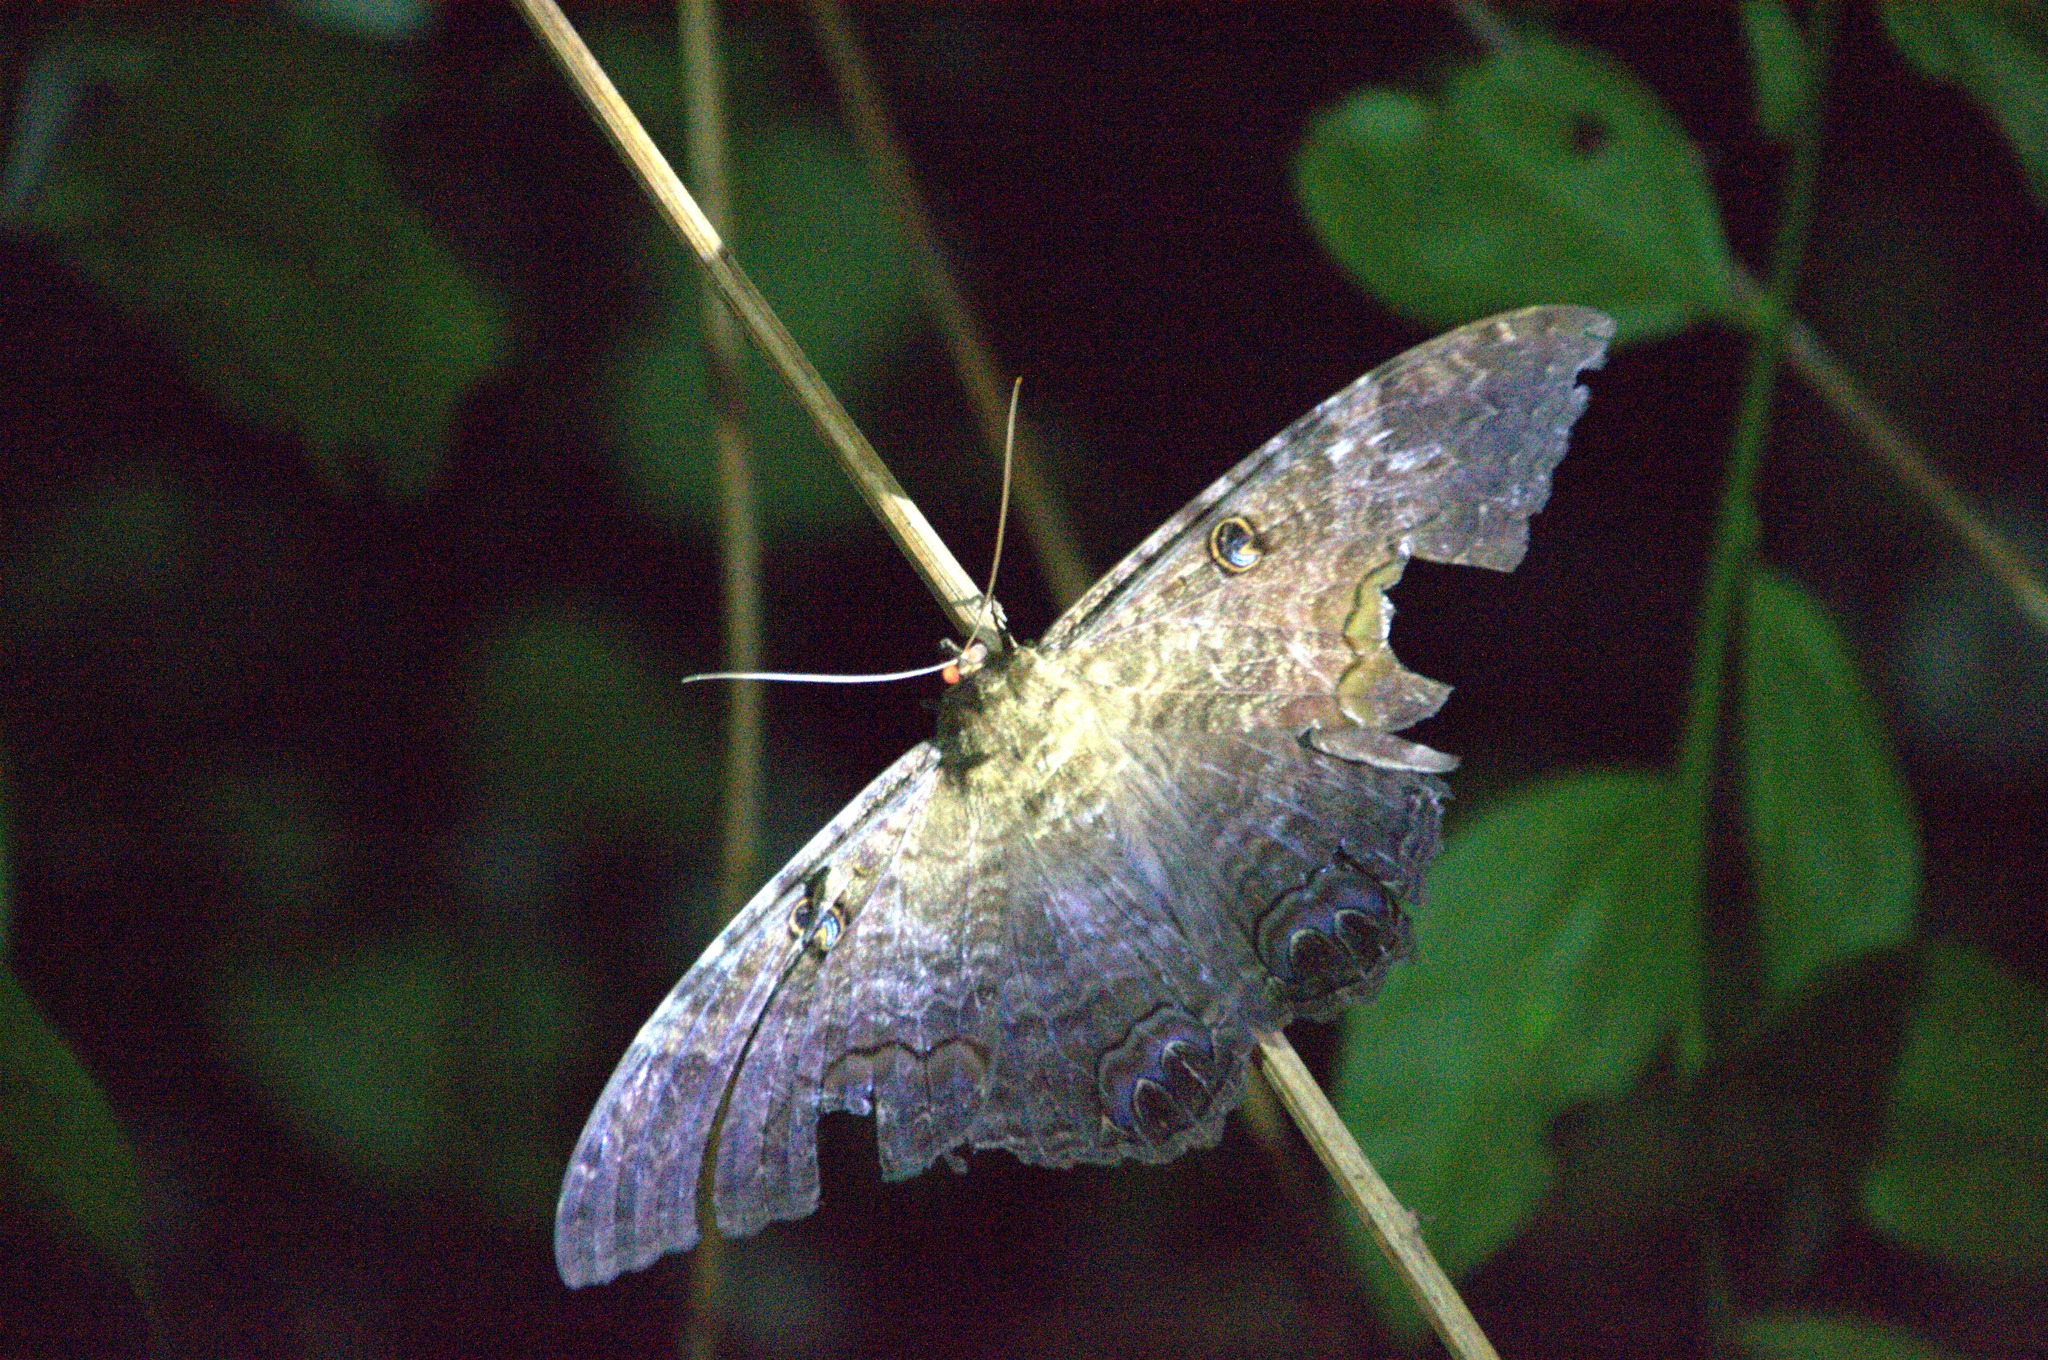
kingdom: Animalia
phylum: Arthropoda
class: Insecta
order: Lepidoptera
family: Erebidae
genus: Ascalapha
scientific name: Ascalapha odorata
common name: Black witch
